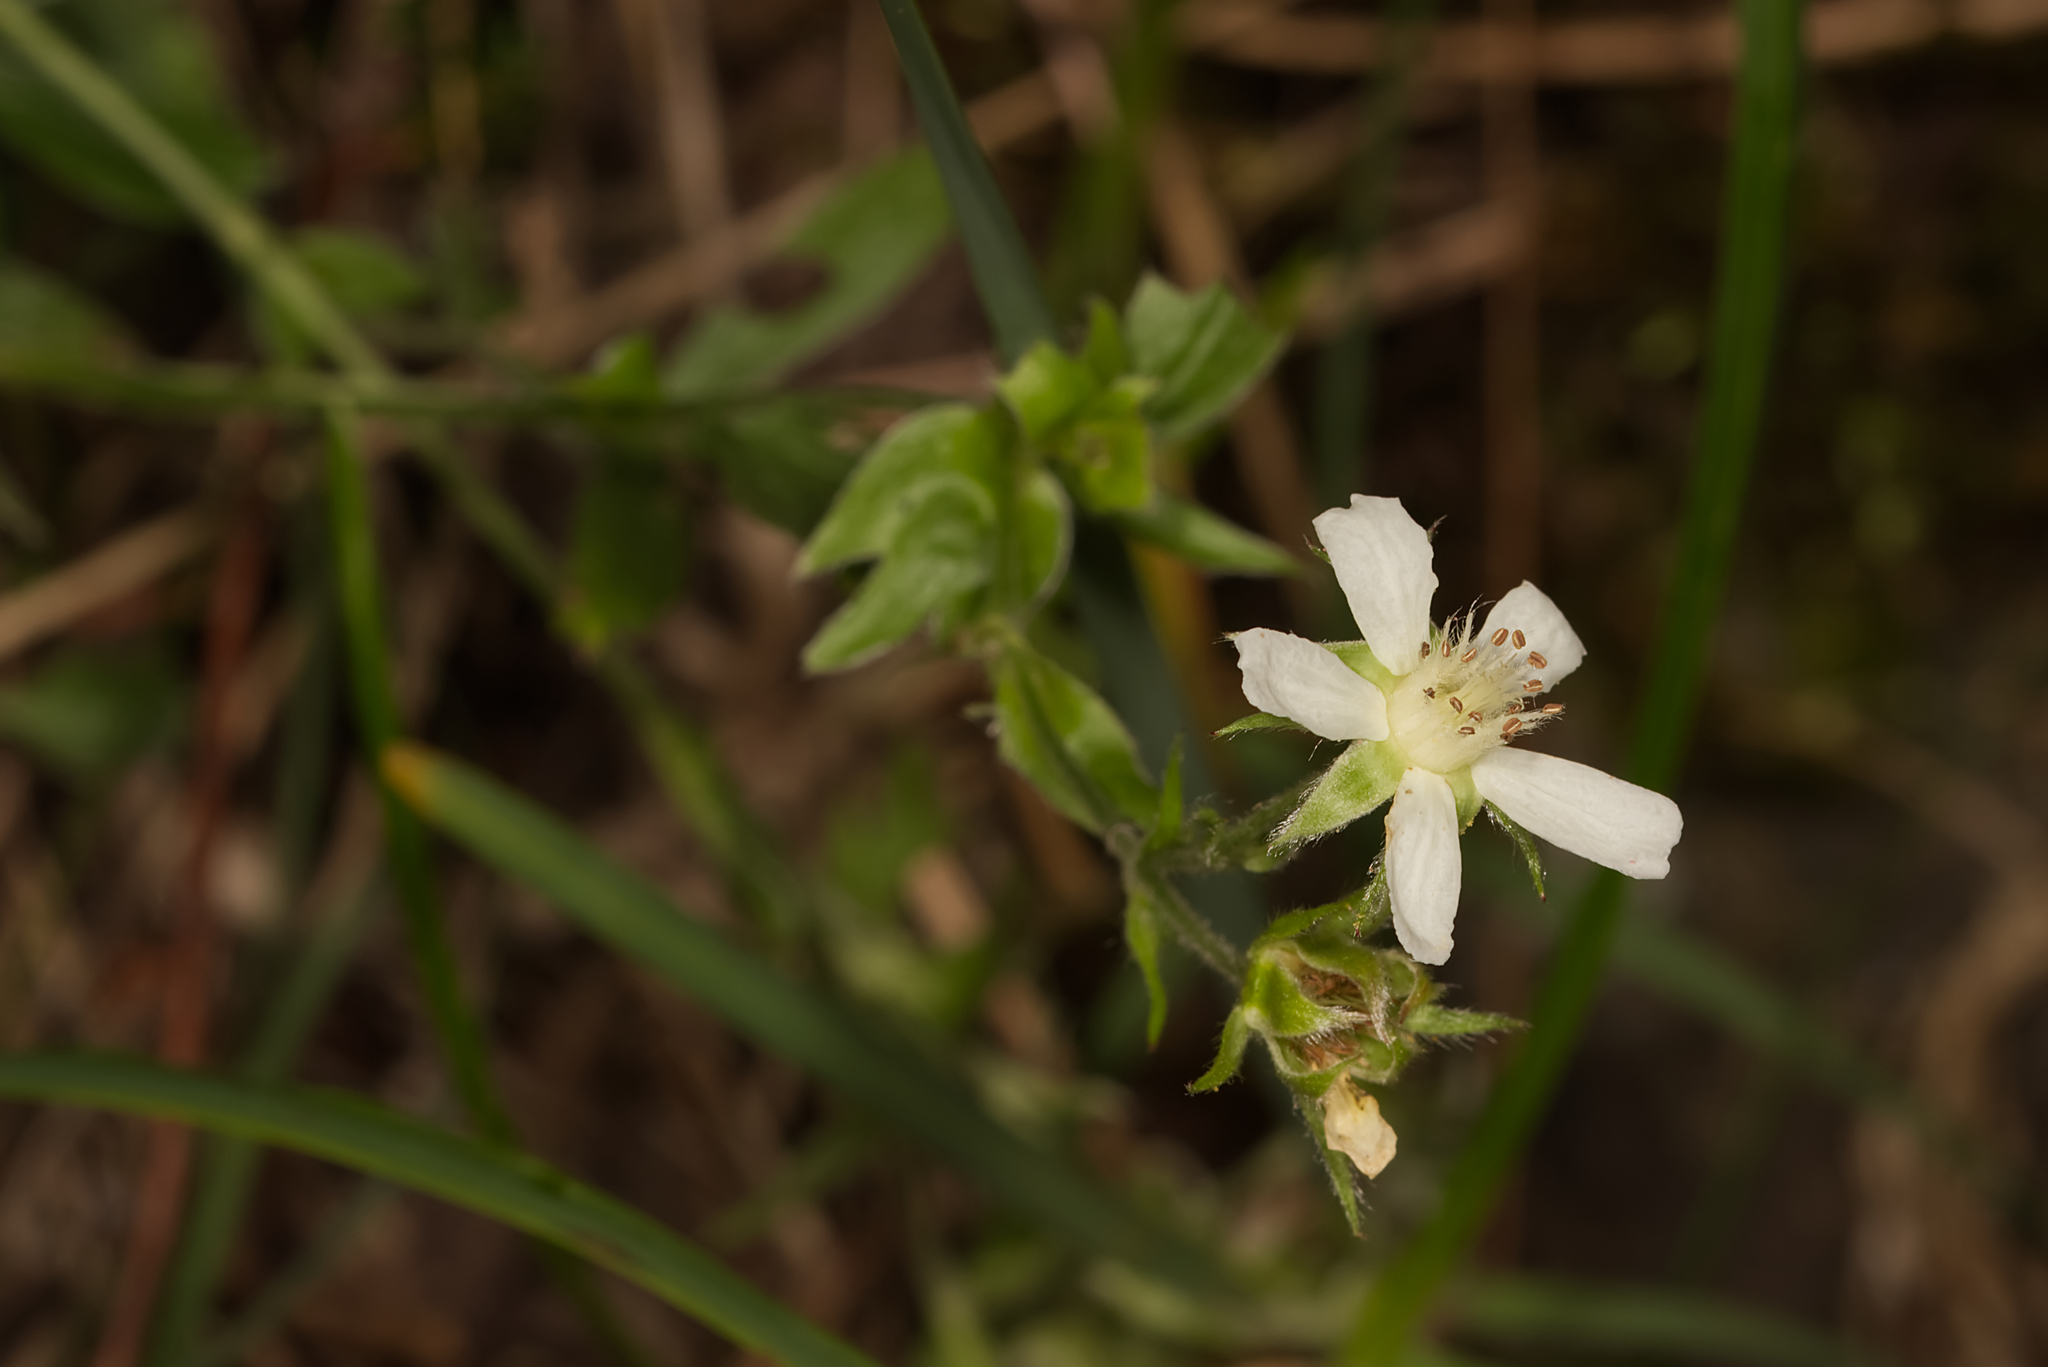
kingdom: Plantae
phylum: Tracheophyta
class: Magnoliopsida
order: Rosales
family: Rosaceae
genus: Potentilla
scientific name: Potentilla caulescens
